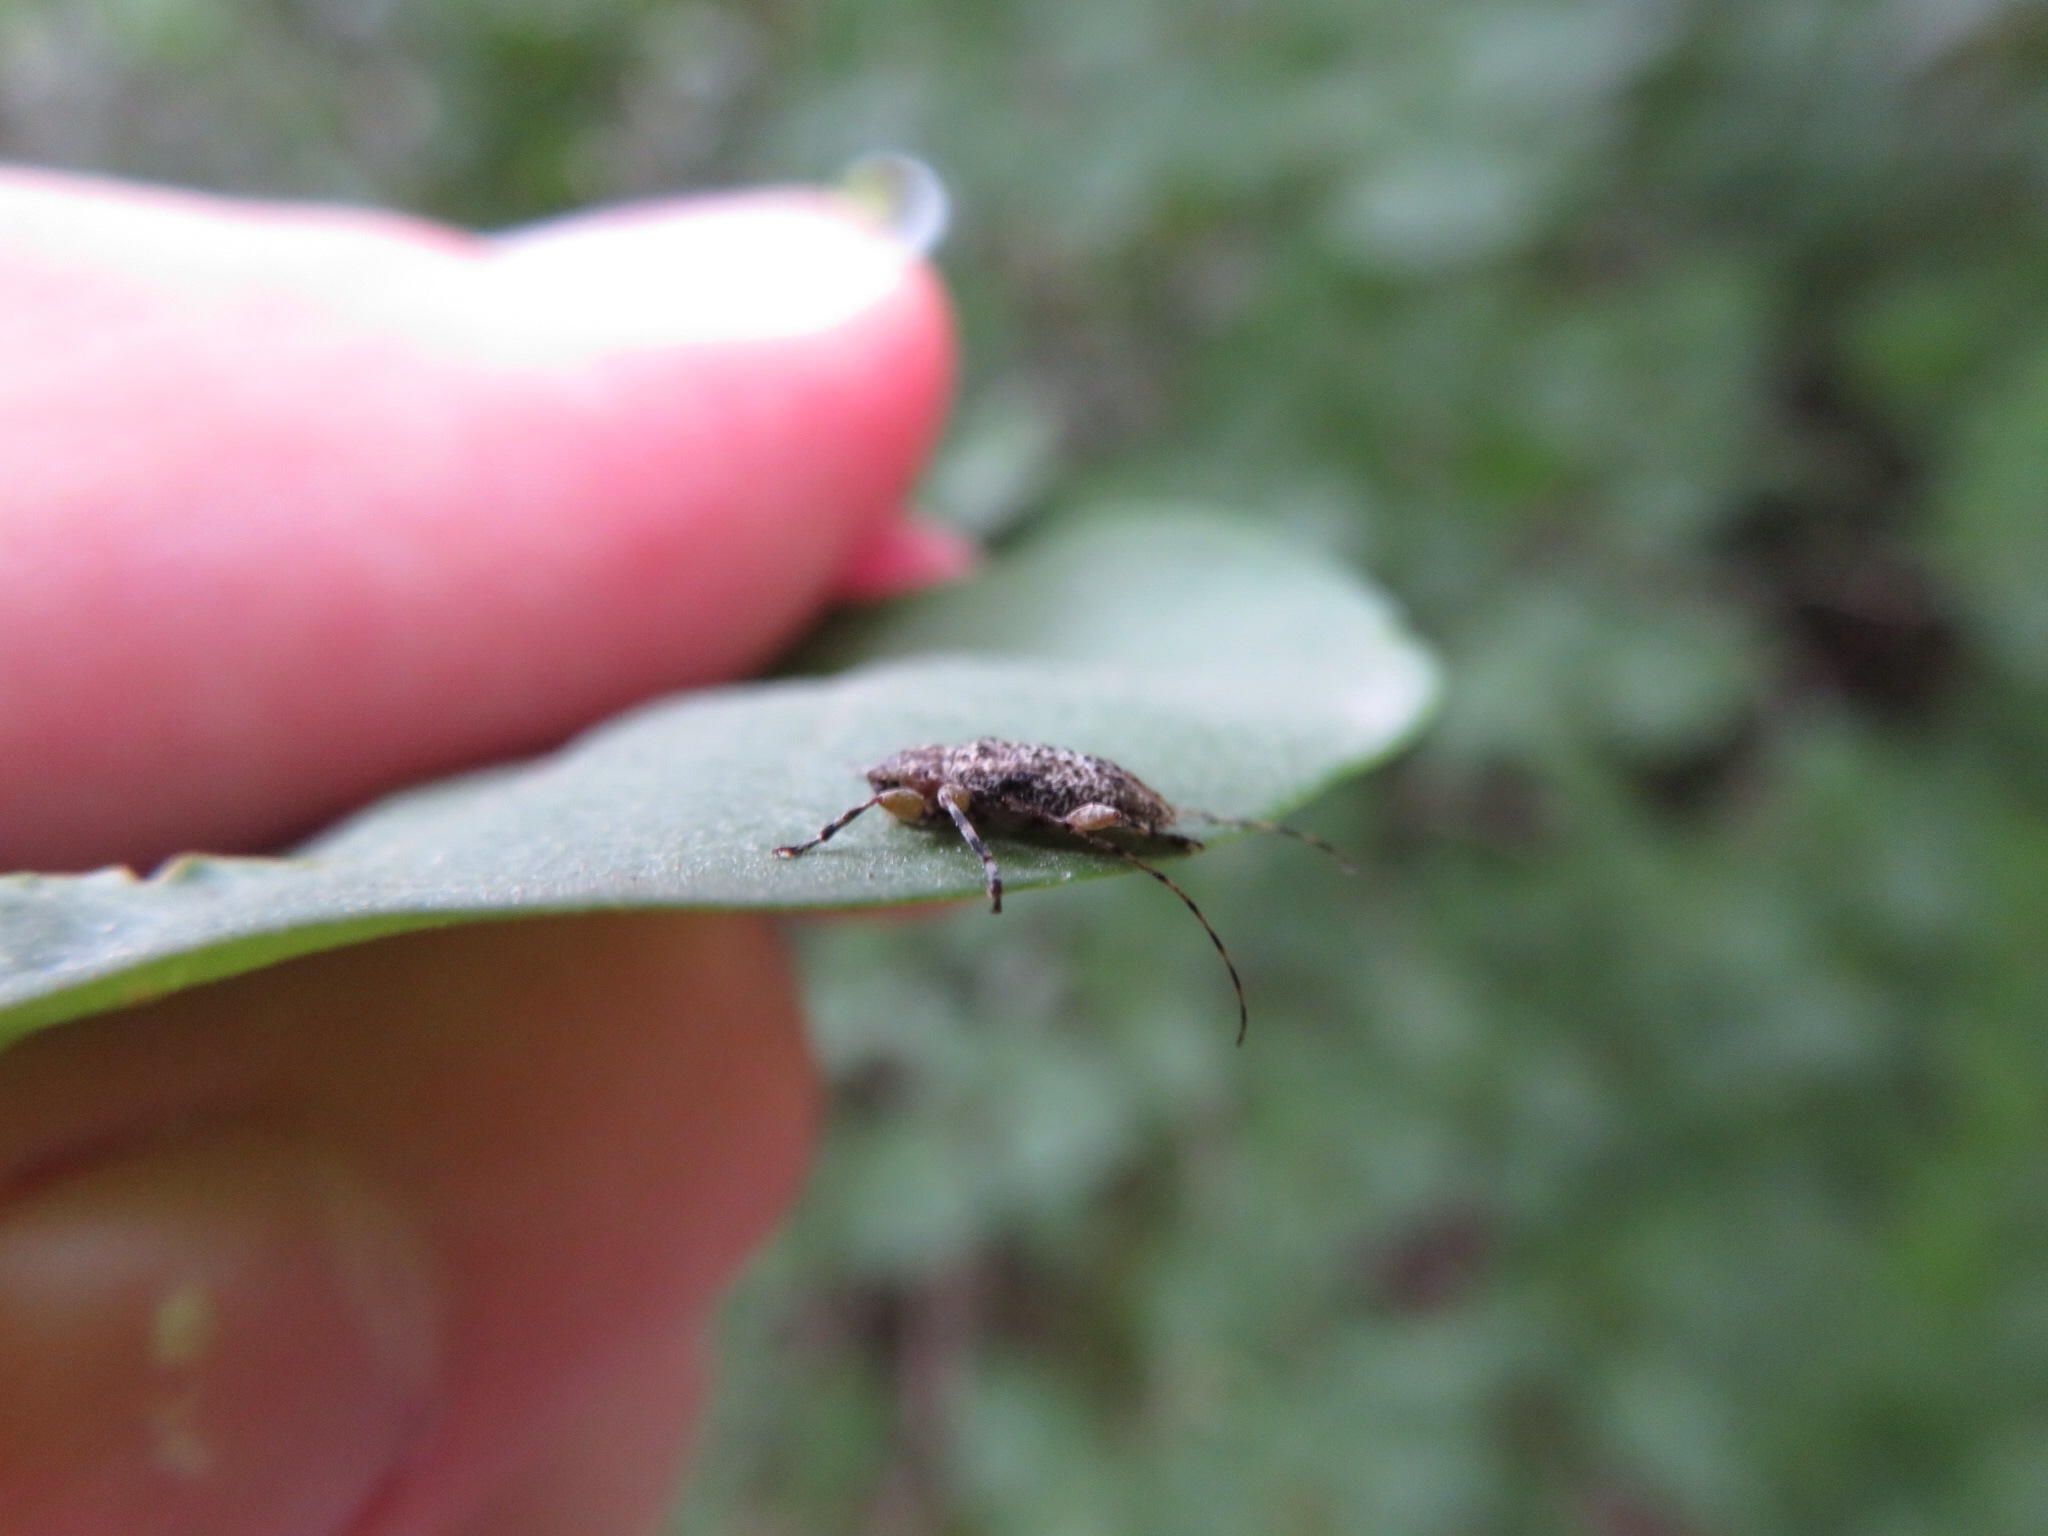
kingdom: Animalia
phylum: Arthropoda
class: Insecta
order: Coleoptera
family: Cerambycidae
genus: Astylopsis
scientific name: Astylopsis sexguttata
